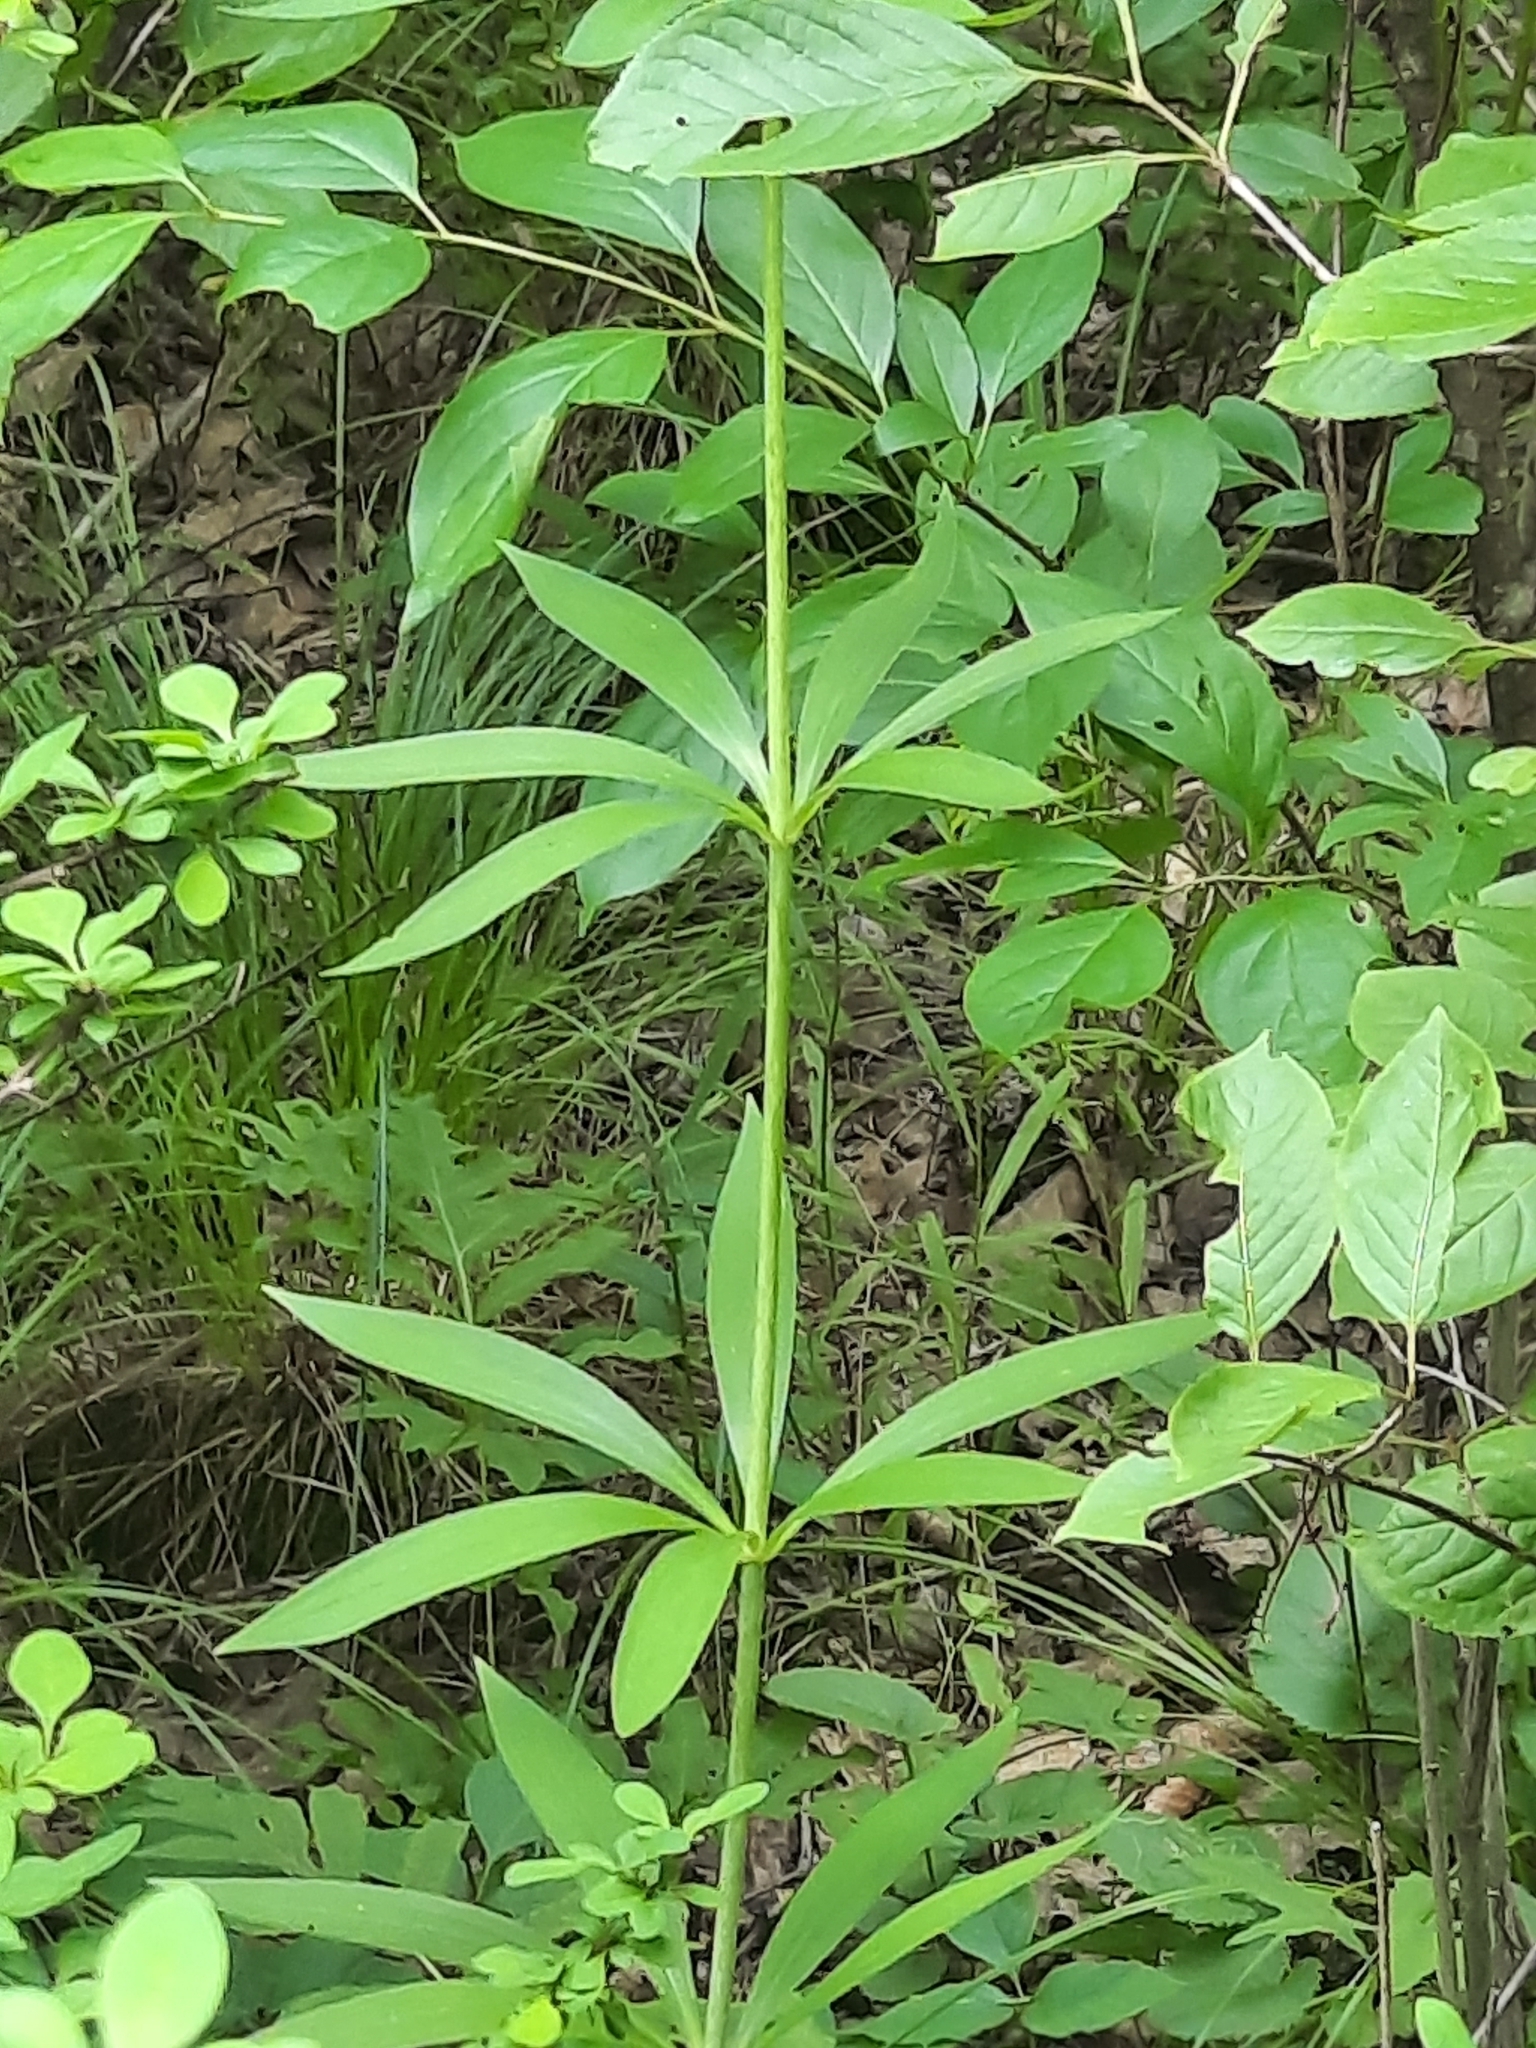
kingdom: Plantae
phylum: Tracheophyta
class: Liliopsida
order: Liliales
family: Liliaceae
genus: Lilium
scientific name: Lilium canadense
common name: Canada lily
